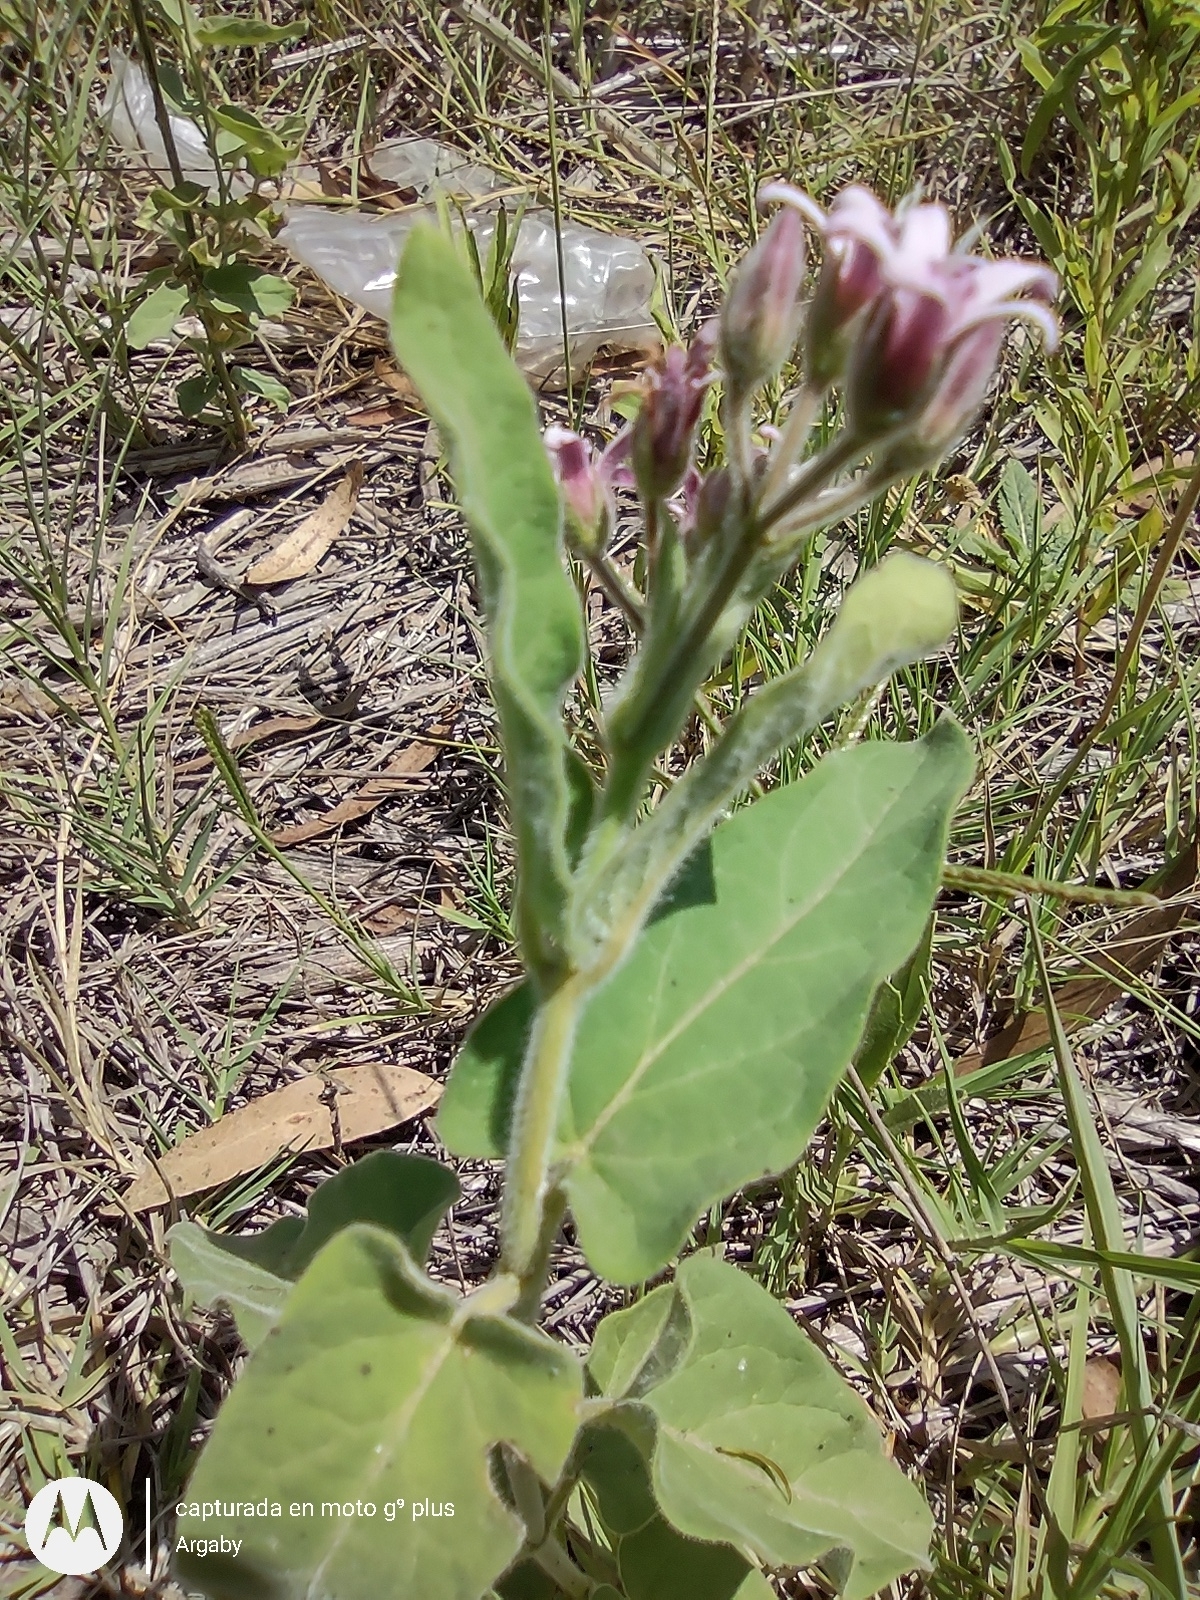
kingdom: Plantae
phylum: Tracheophyta
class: Magnoliopsida
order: Gentianales
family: Apocynaceae
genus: Oxypetalum
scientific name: Oxypetalum solanoides
